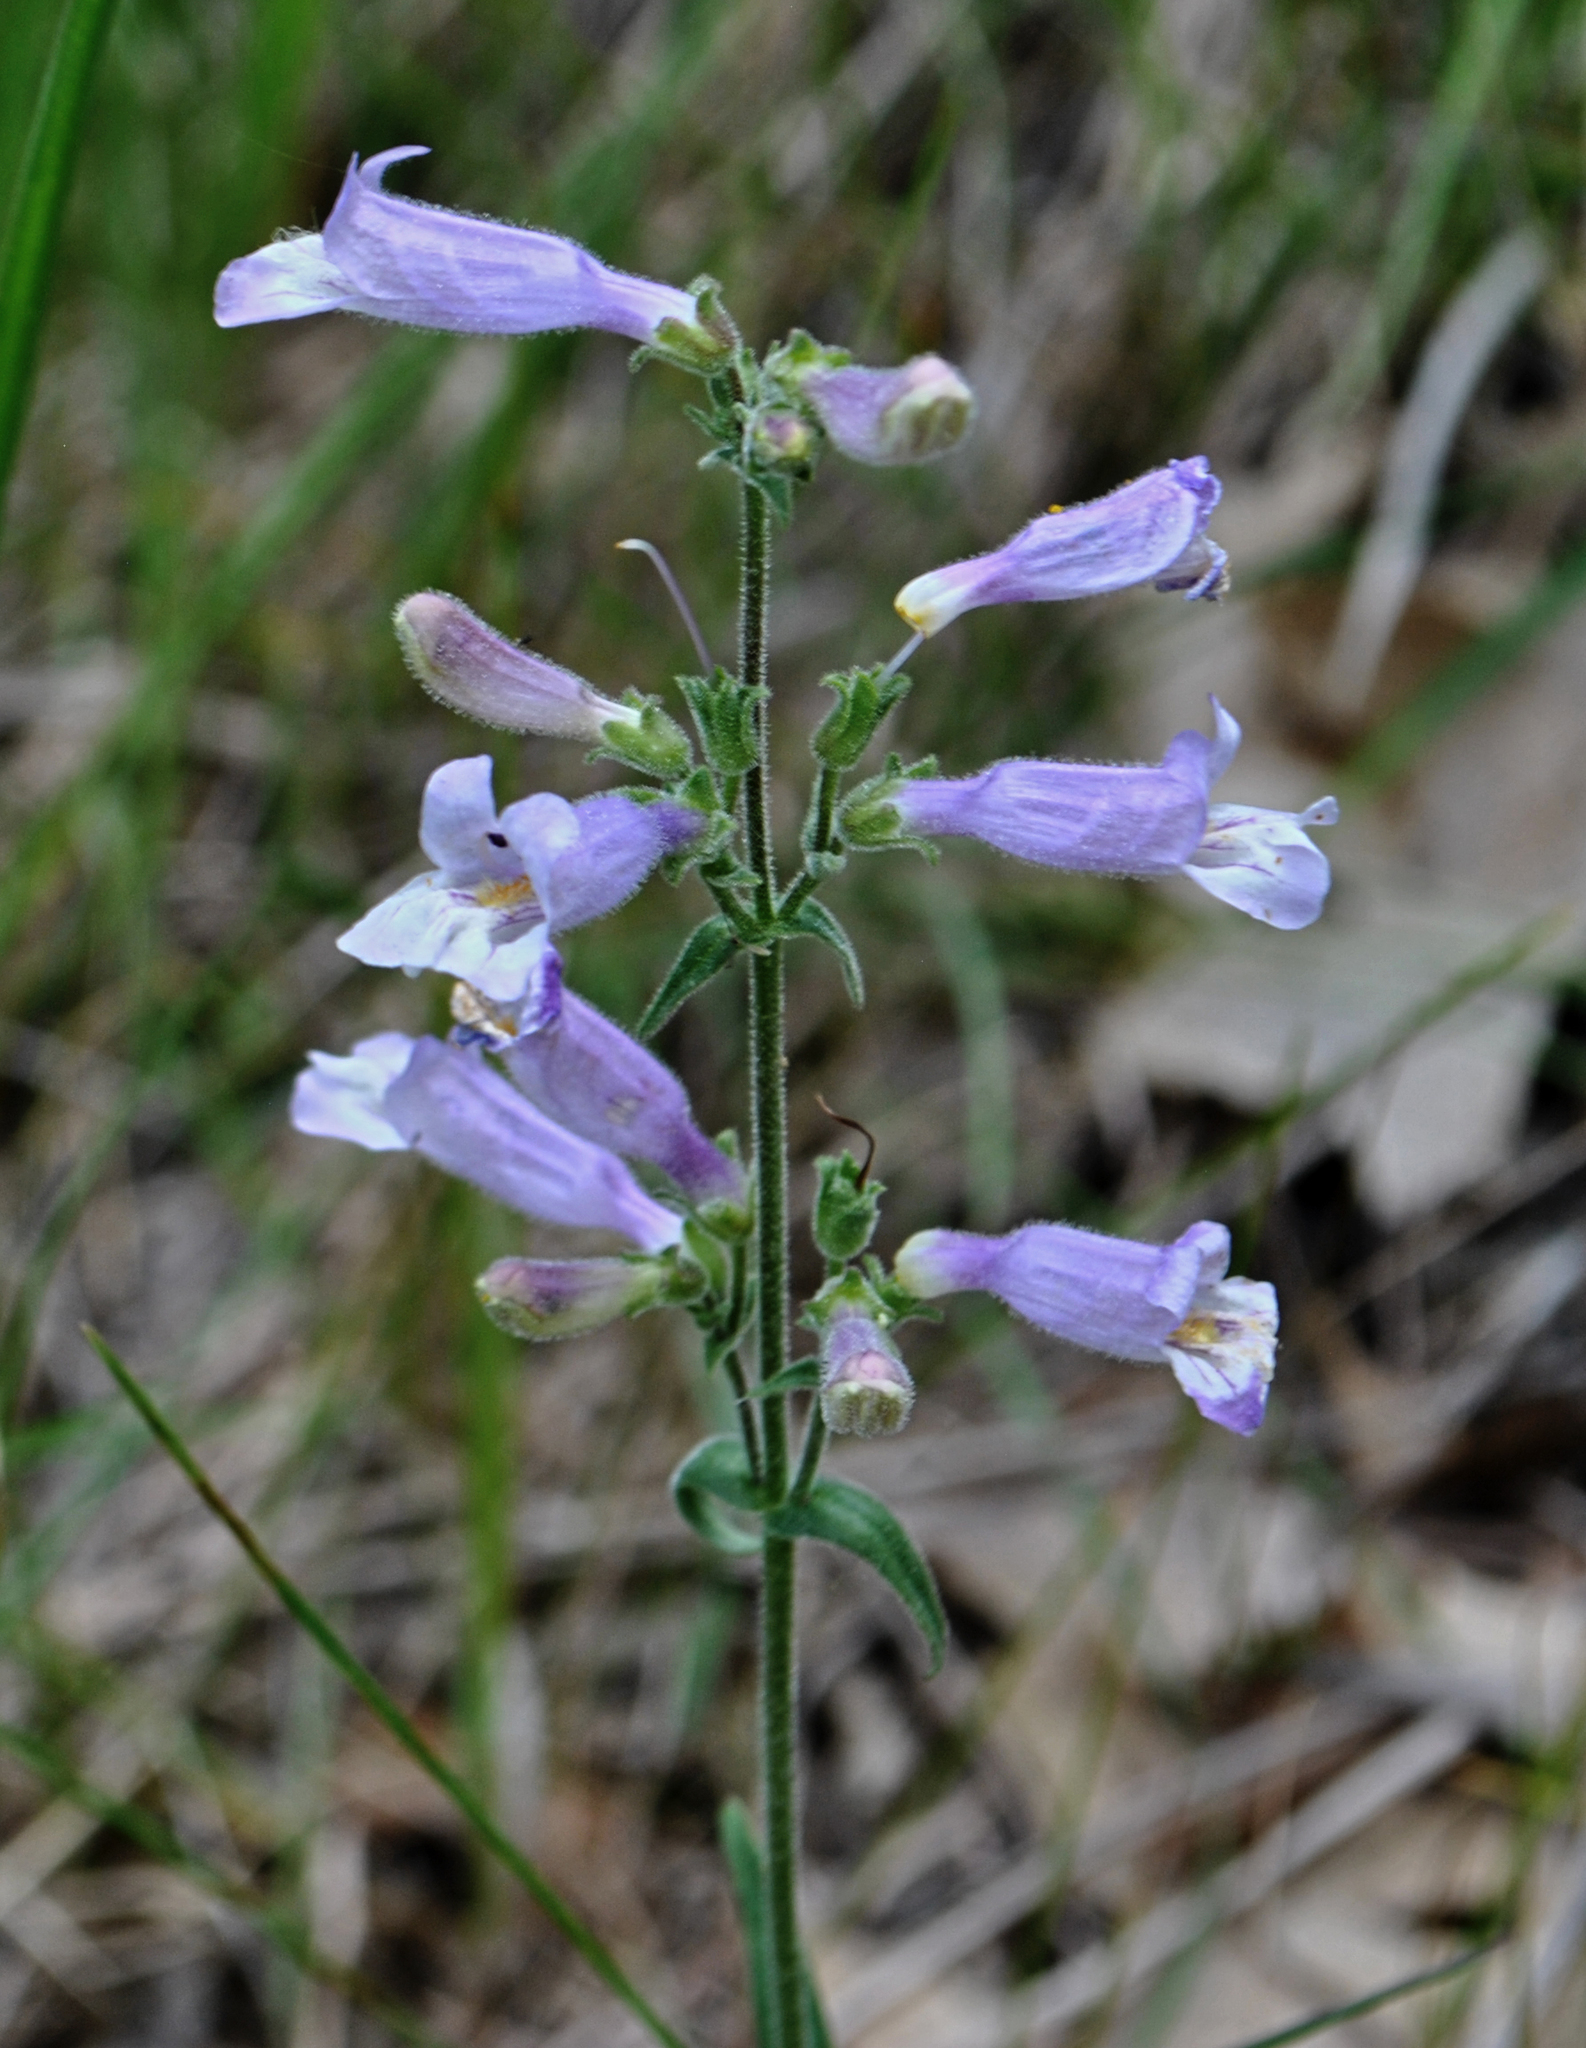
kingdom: Plantae
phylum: Tracheophyta
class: Magnoliopsida
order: Lamiales
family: Plantaginaceae
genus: Penstemon
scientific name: Penstemon gracilis
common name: Slender beardtongue
